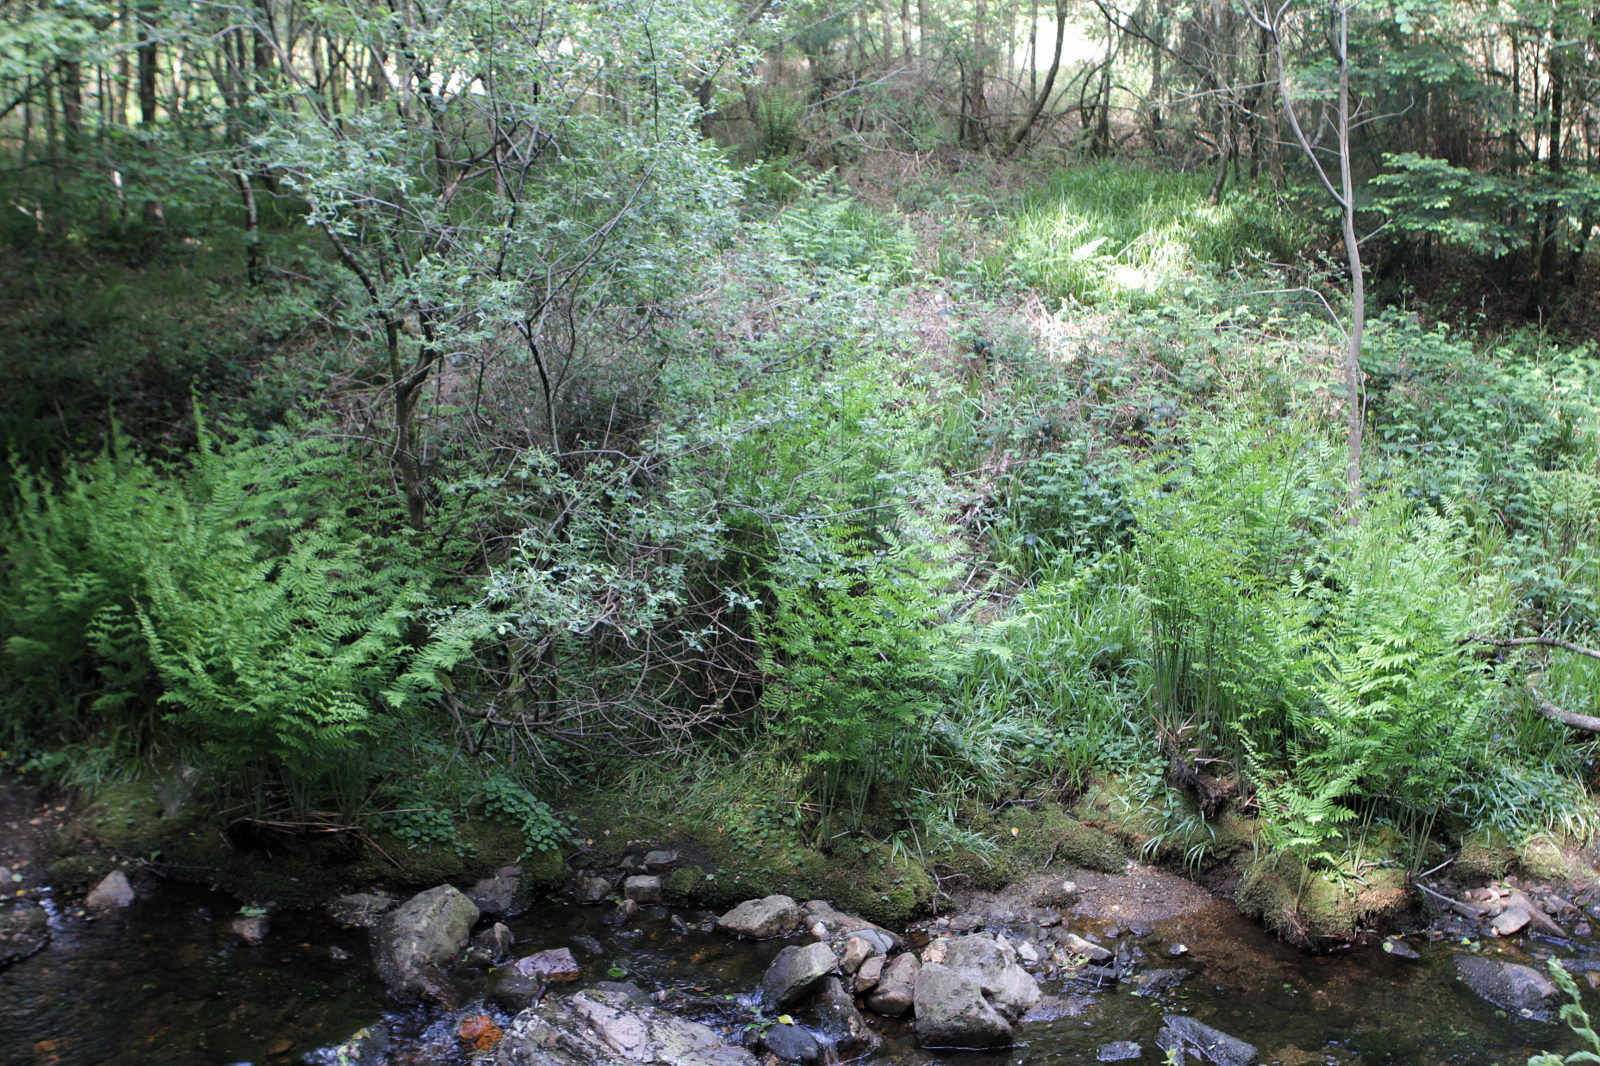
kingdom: Plantae
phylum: Tracheophyta
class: Polypodiopsida
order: Osmundales
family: Osmundaceae
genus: Osmunda
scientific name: Osmunda regalis
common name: Royal fern
